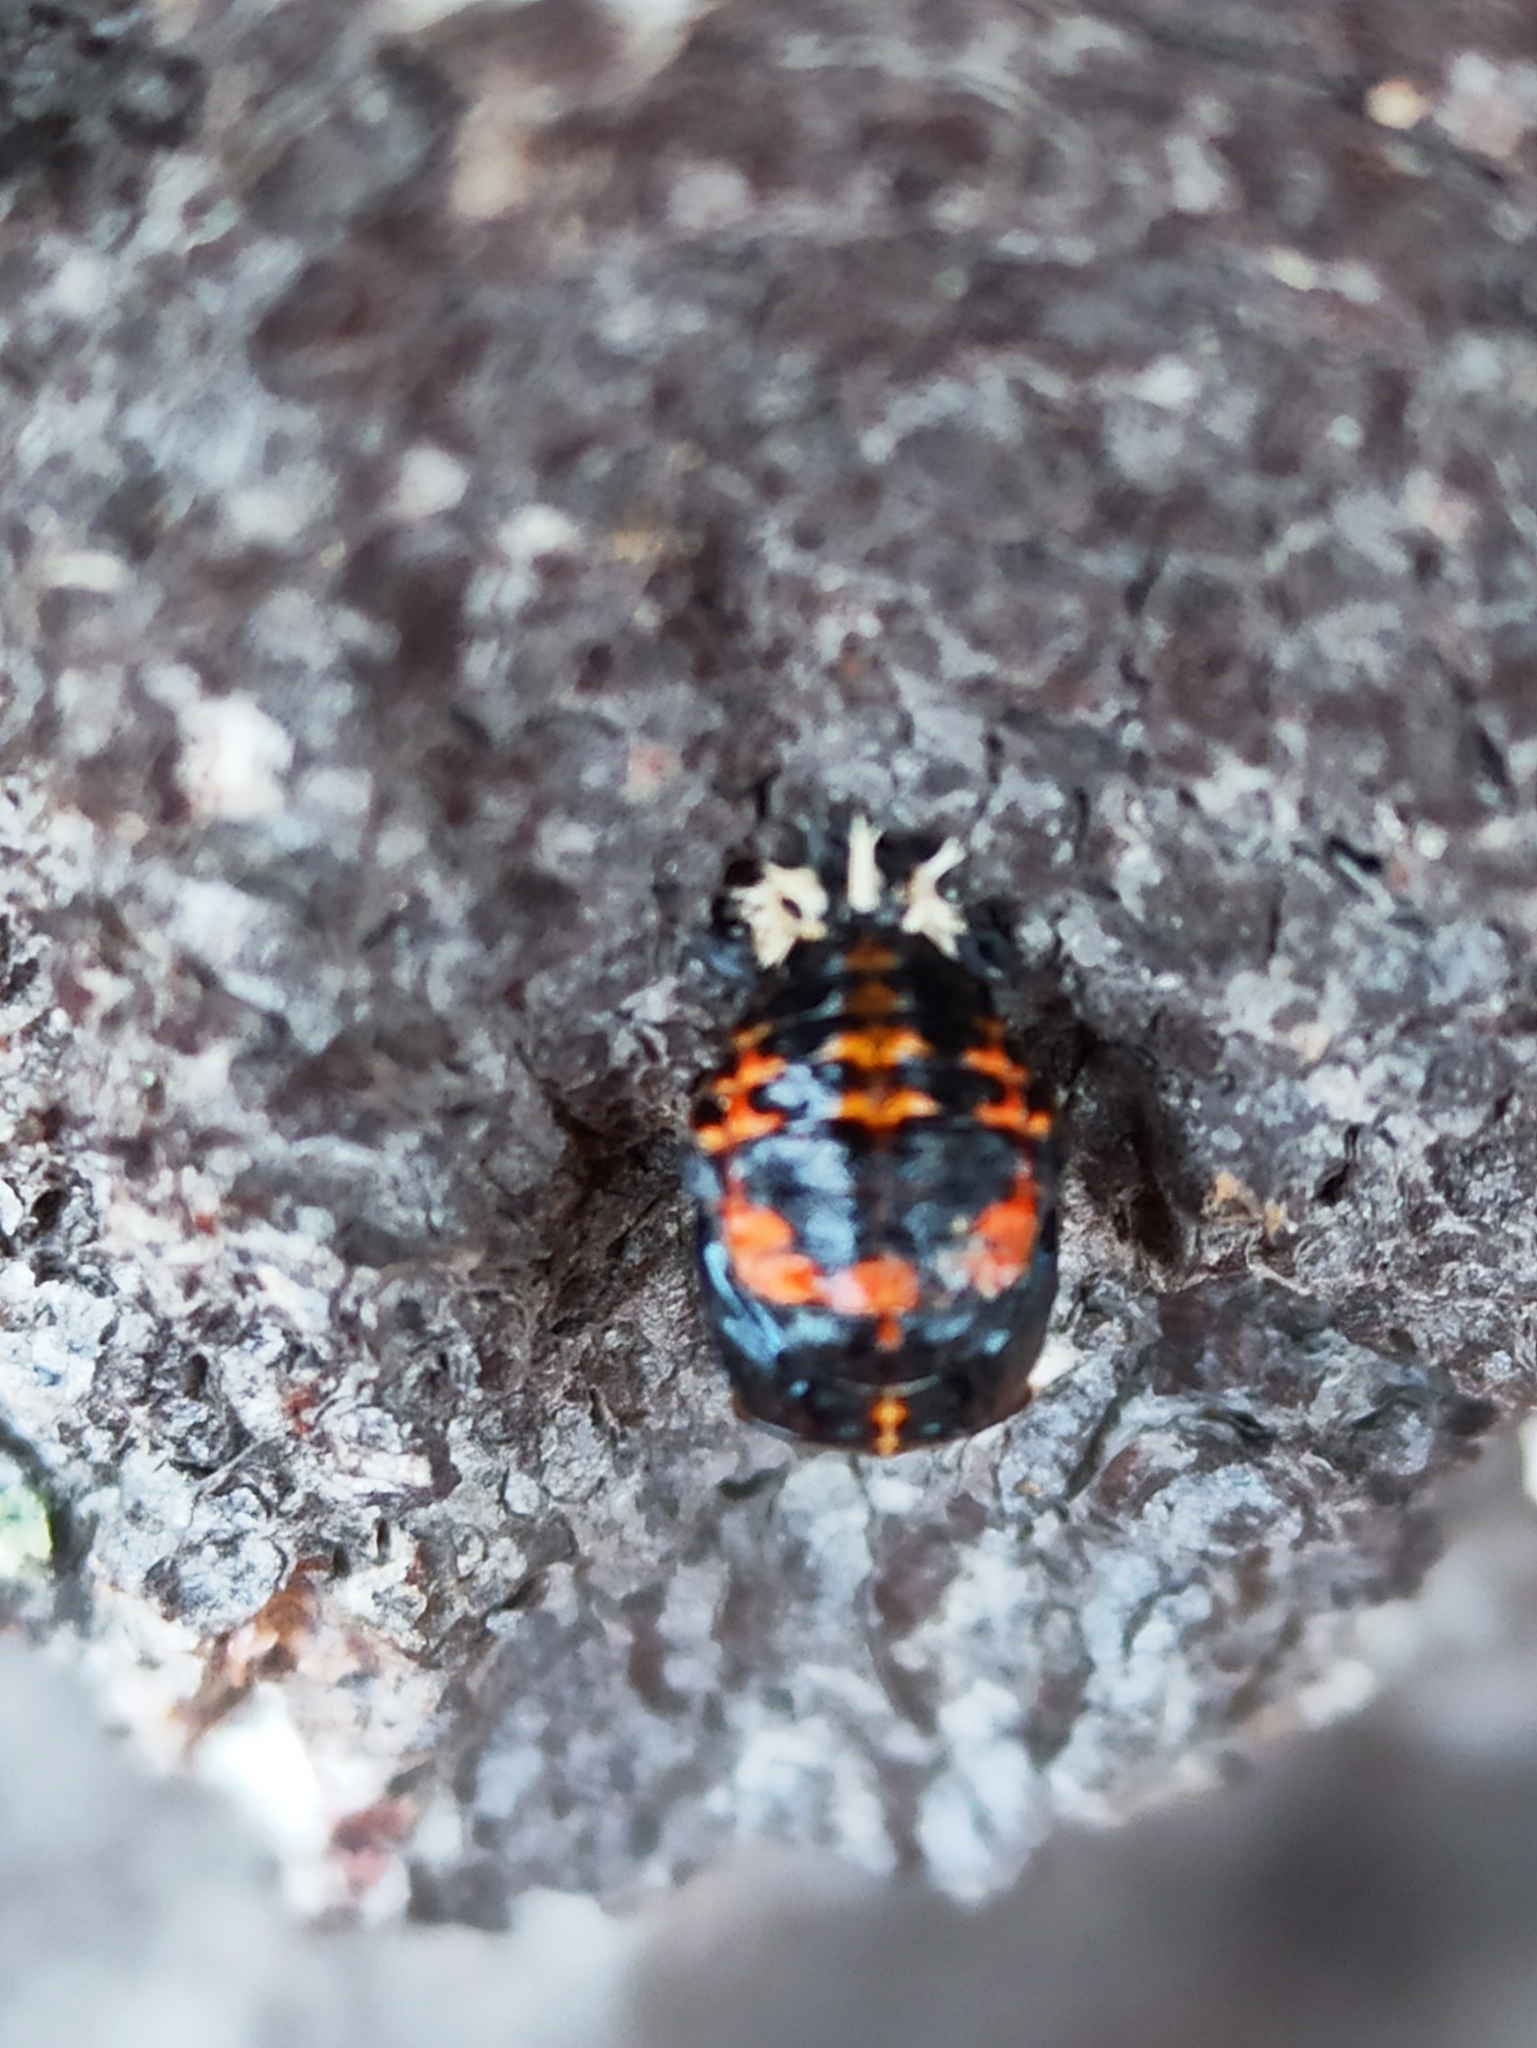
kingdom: Animalia
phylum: Arthropoda
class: Insecta
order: Coleoptera
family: Coccinellidae
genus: Harmonia
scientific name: Harmonia axyridis
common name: Harlequin ladybird
